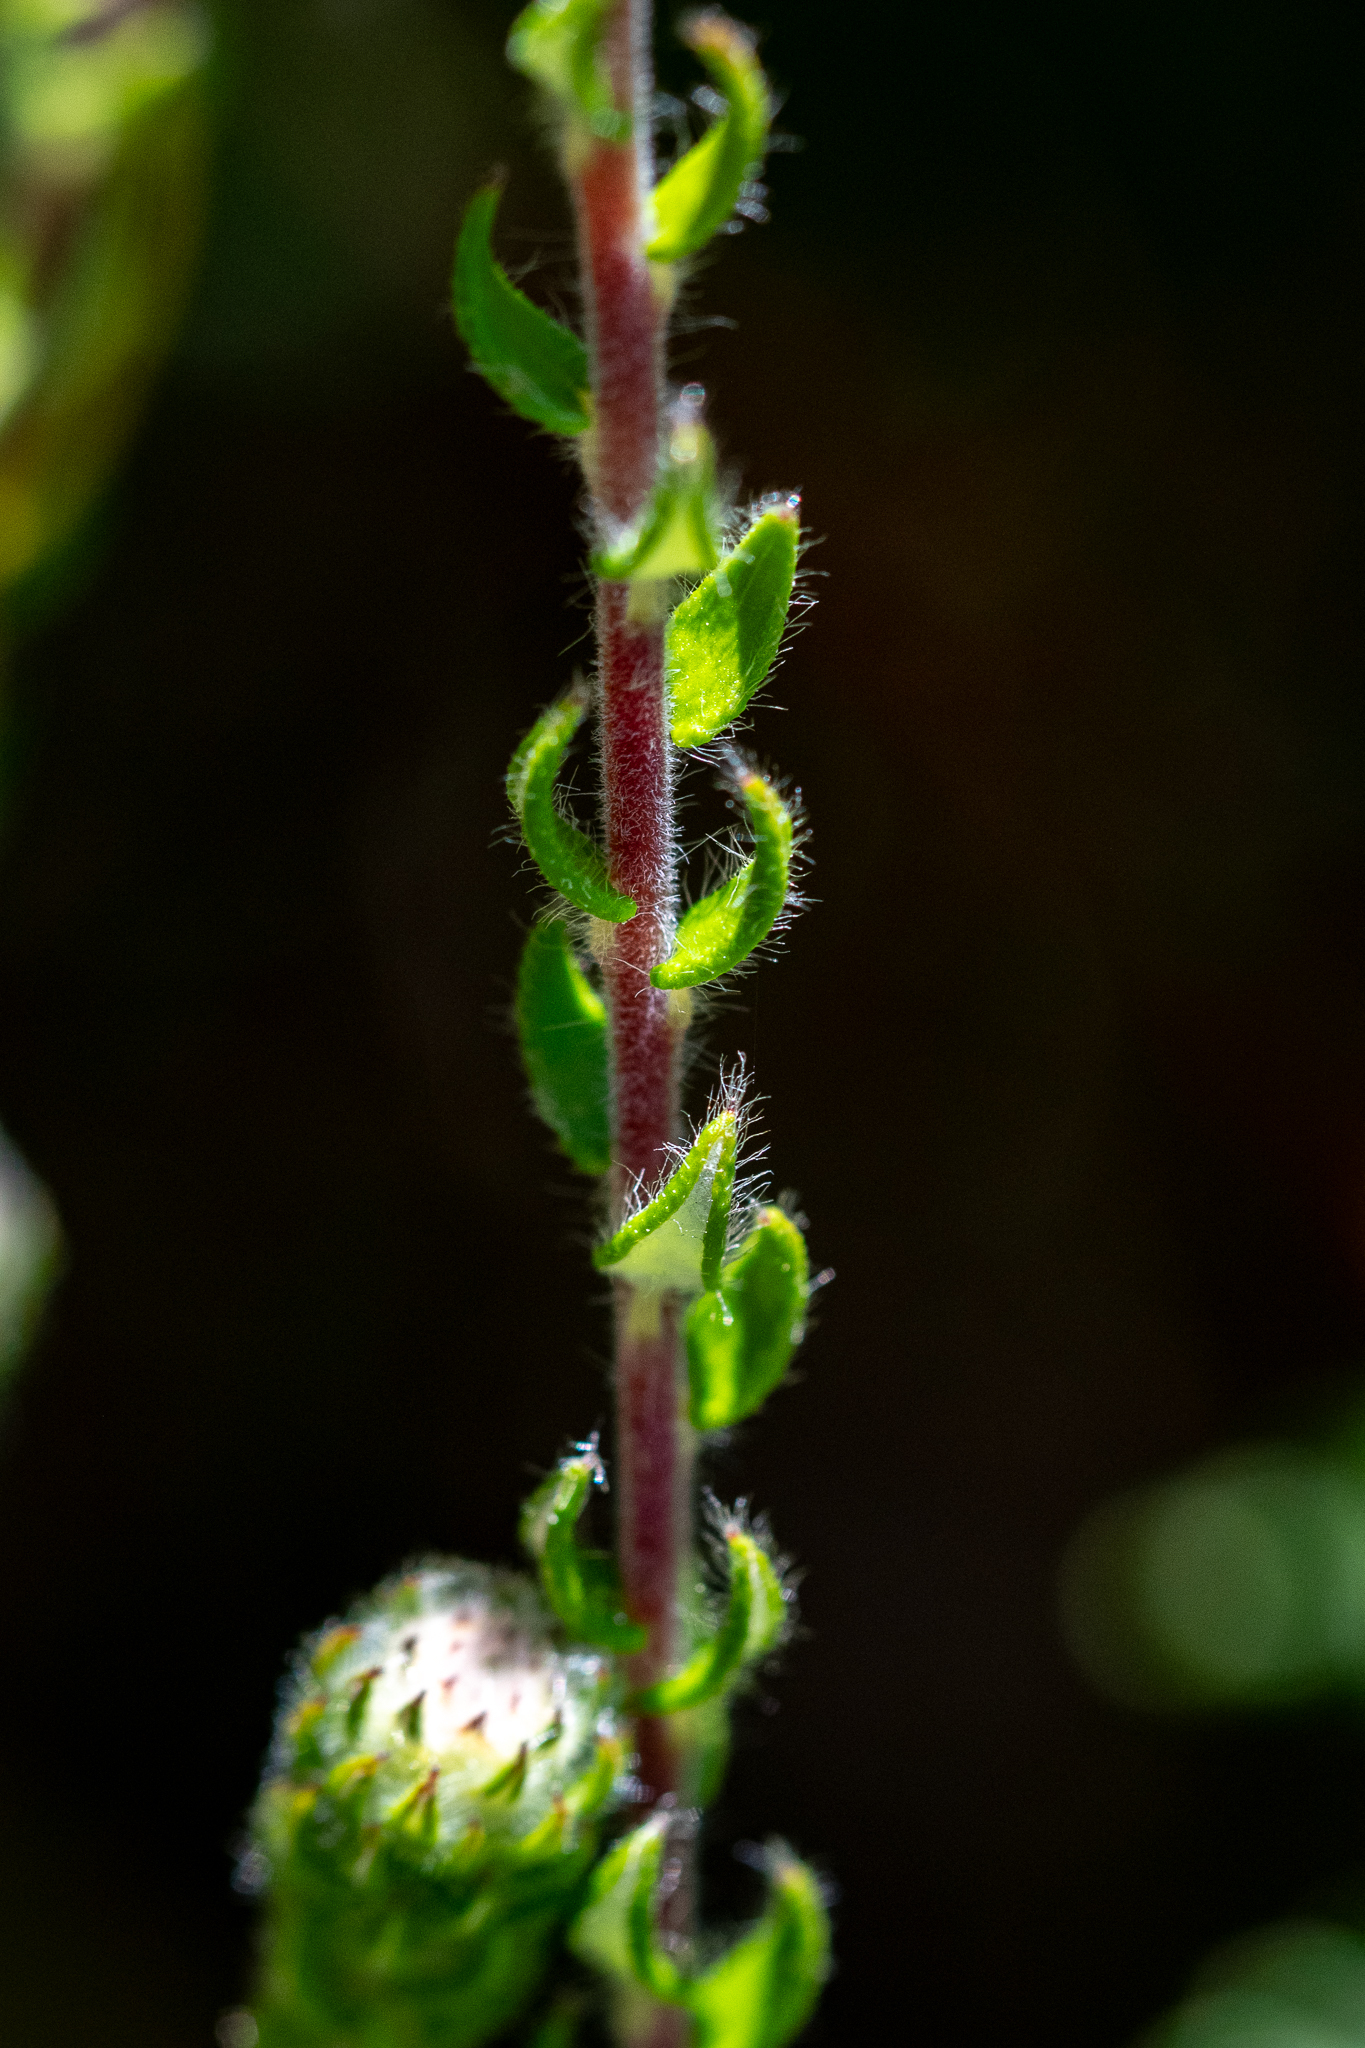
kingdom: Plantae
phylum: Tracheophyta
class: Magnoliopsida
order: Rosales
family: Rhamnaceae
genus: Phylica
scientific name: Phylica purpurea
